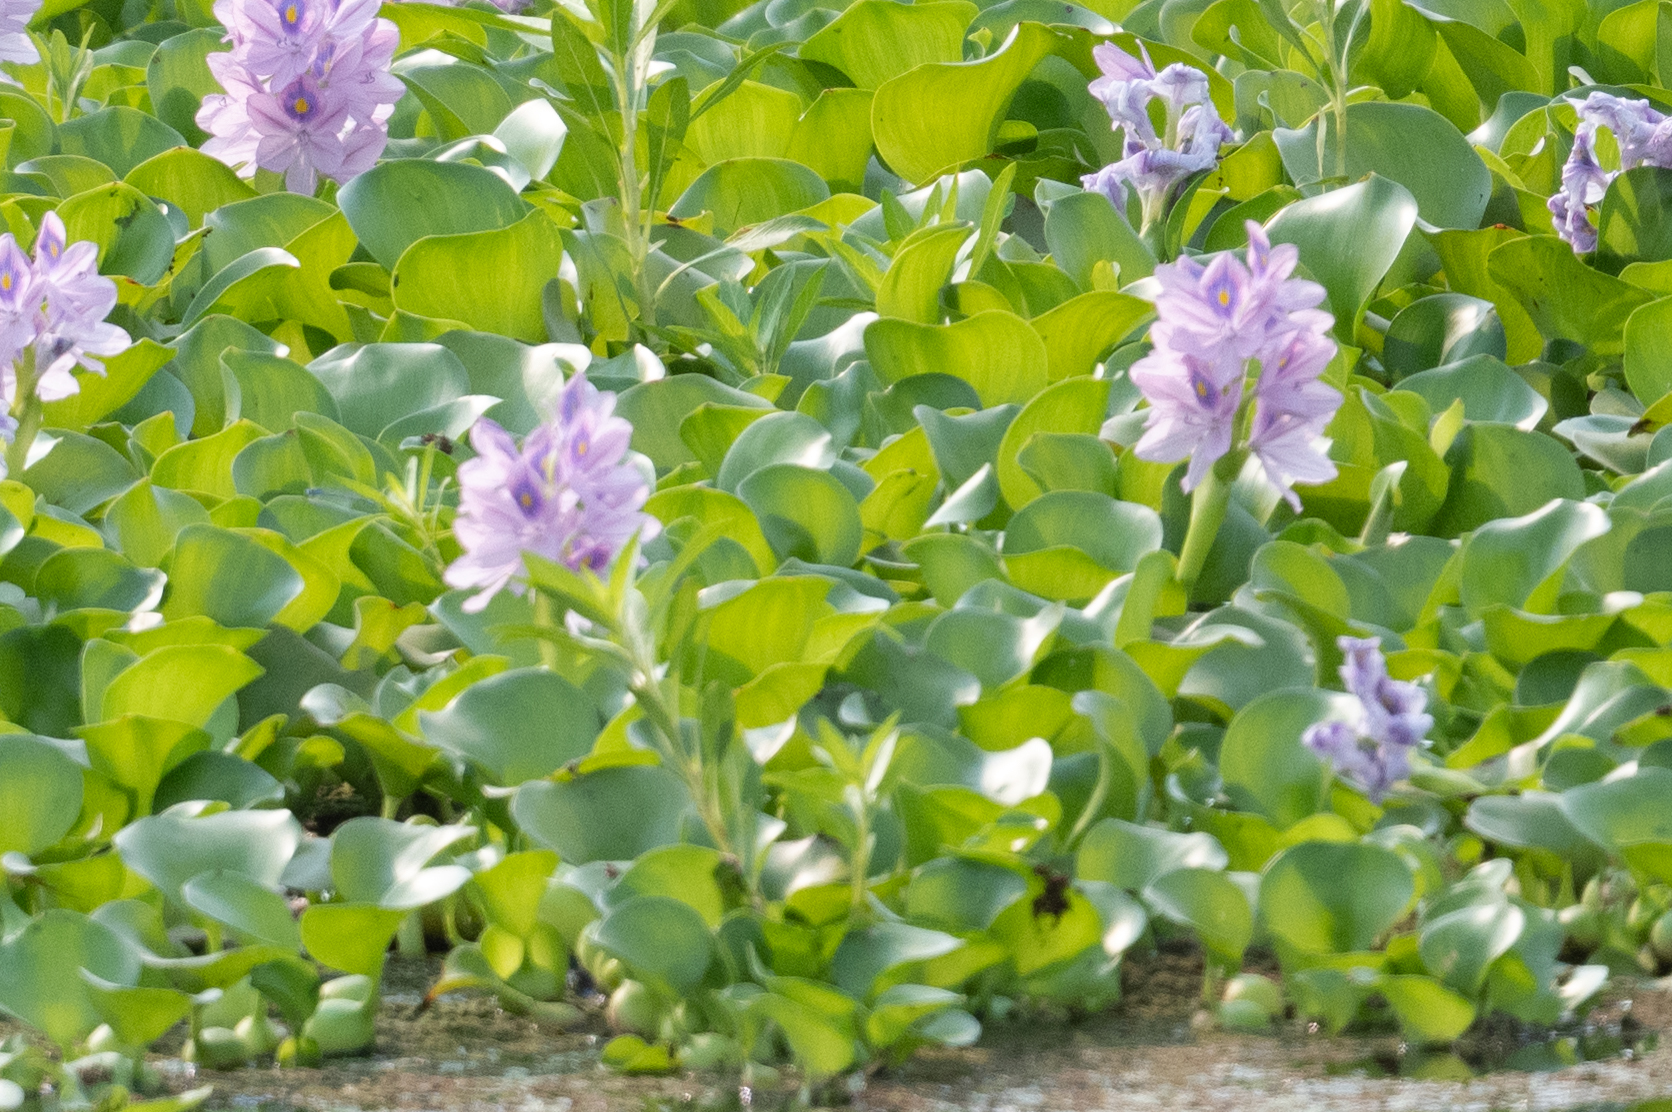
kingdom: Plantae
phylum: Tracheophyta
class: Liliopsida
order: Commelinales
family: Pontederiaceae
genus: Pontederia
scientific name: Pontederia crassipes
